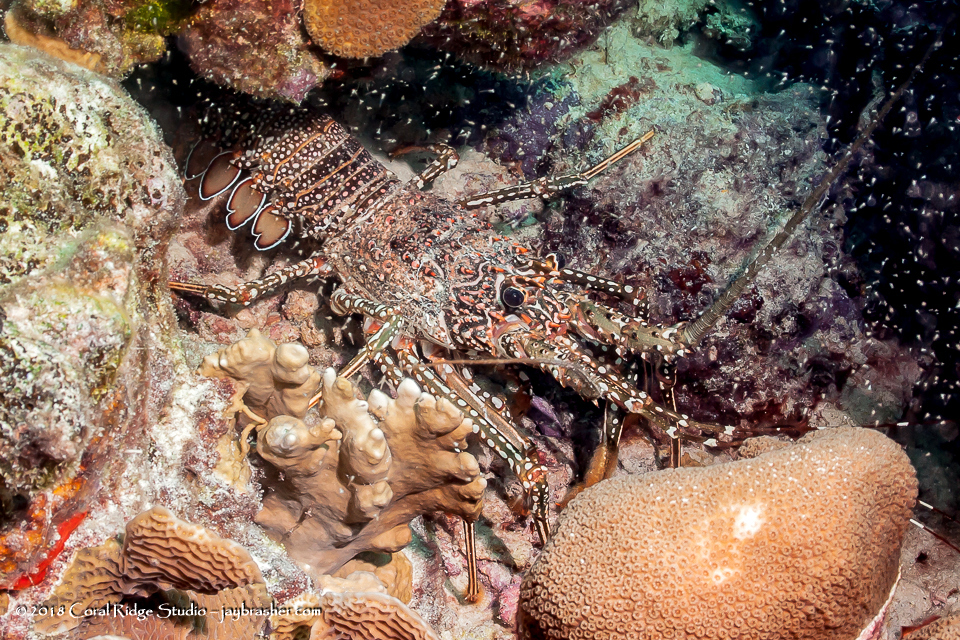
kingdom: Animalia
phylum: Arthropoda
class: Malacostraca
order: Decapoda
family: Palinuridae
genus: Panulirus
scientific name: Panulirus guttatus
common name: Spotted spiny lobster
